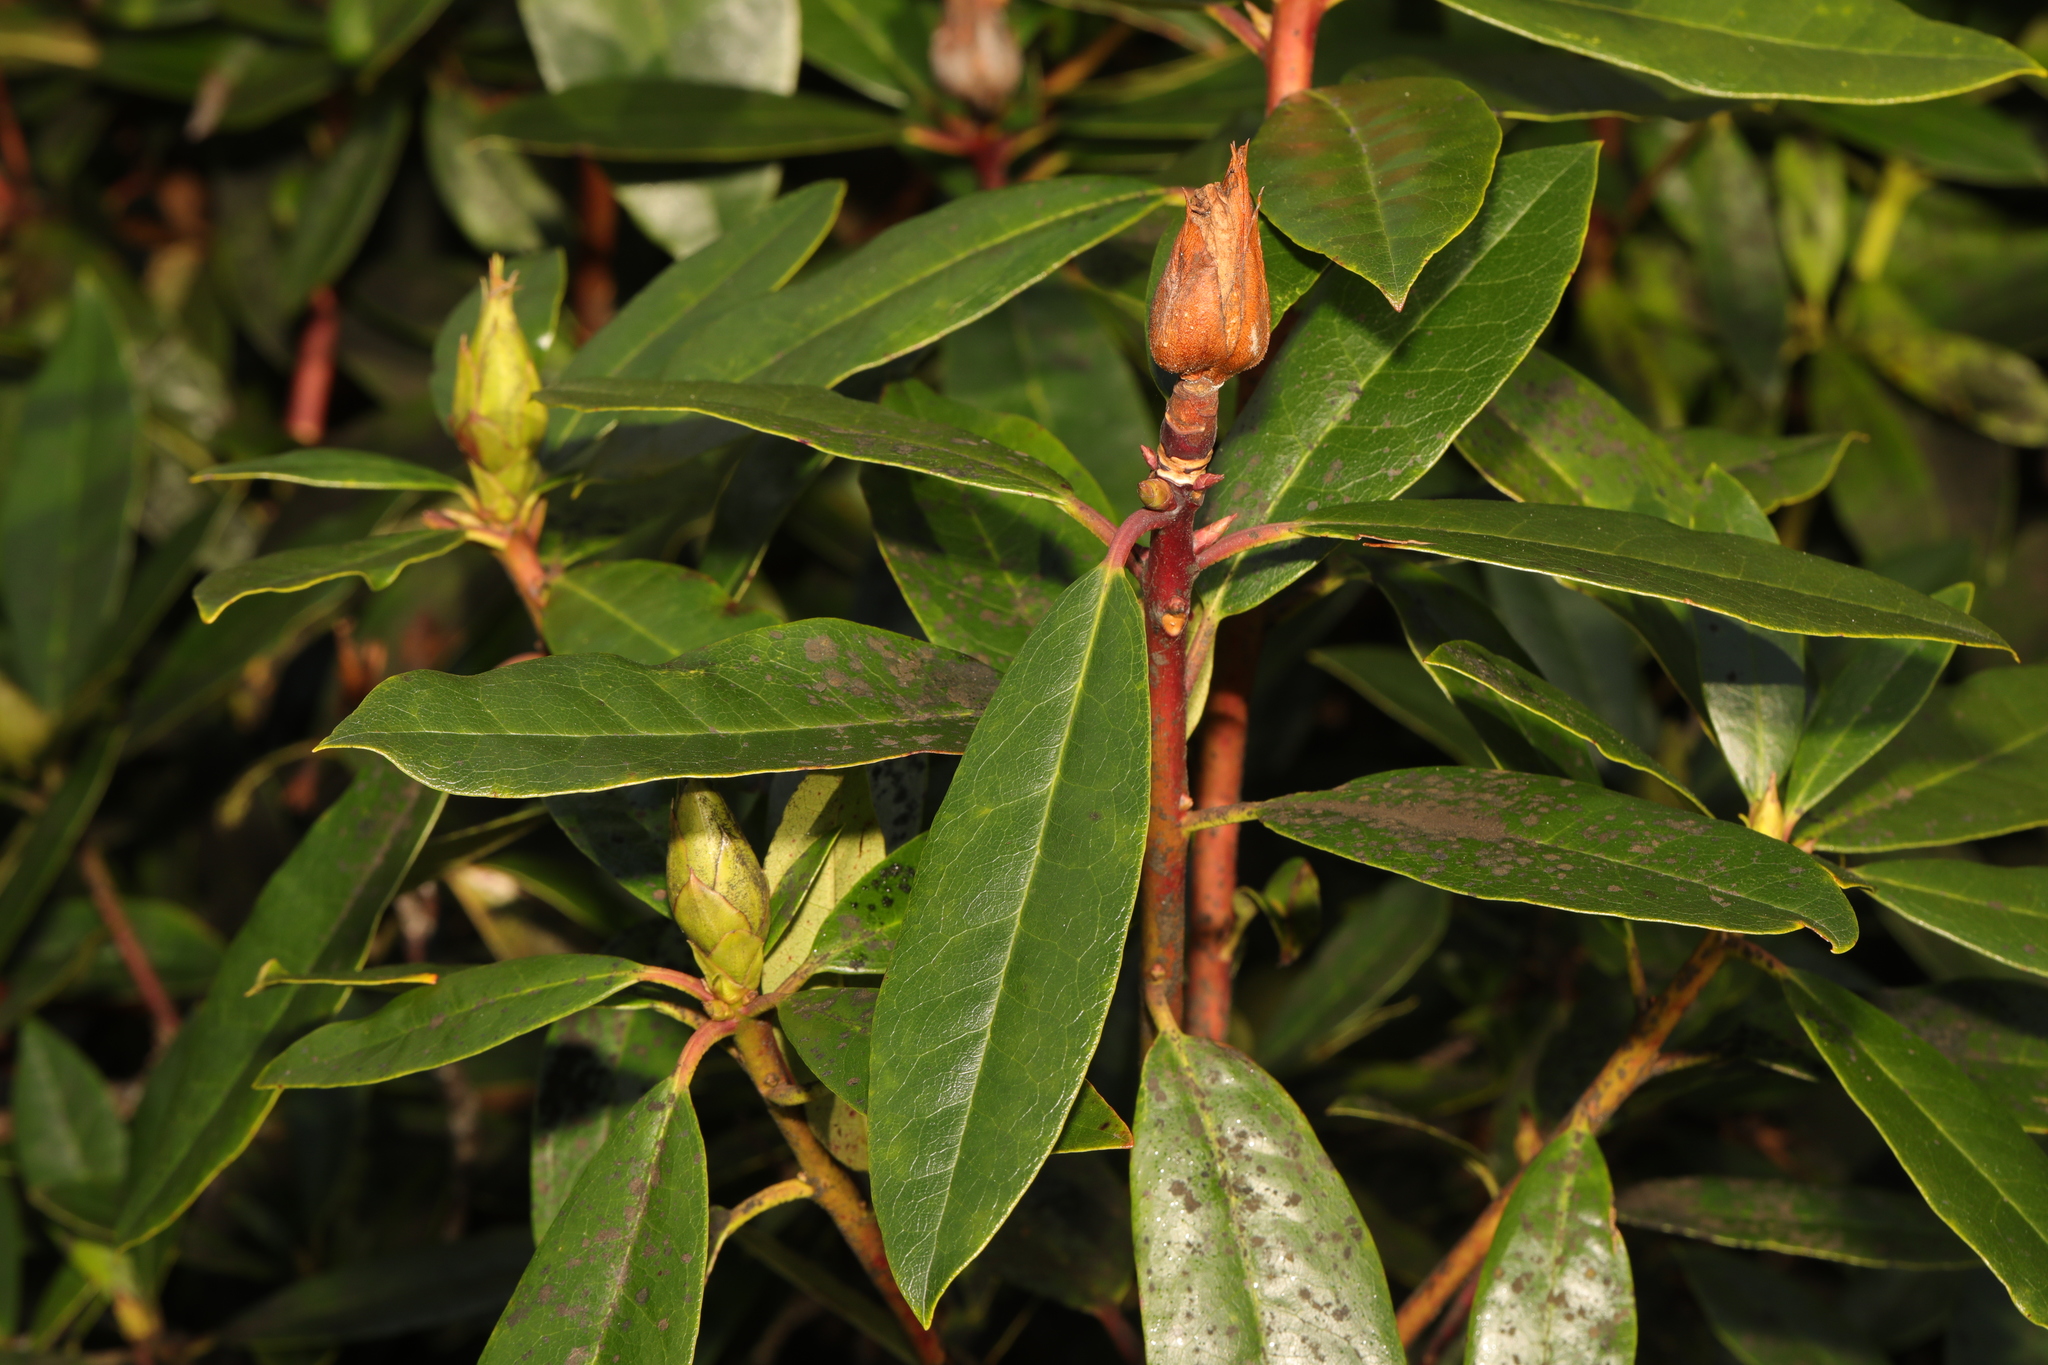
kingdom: Plantae
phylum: Tracheophyta
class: Magnoliopsida
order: Ericales
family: Ericaceae
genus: Rhododendron
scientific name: Rhododendron ponticum
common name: Rhododendron
